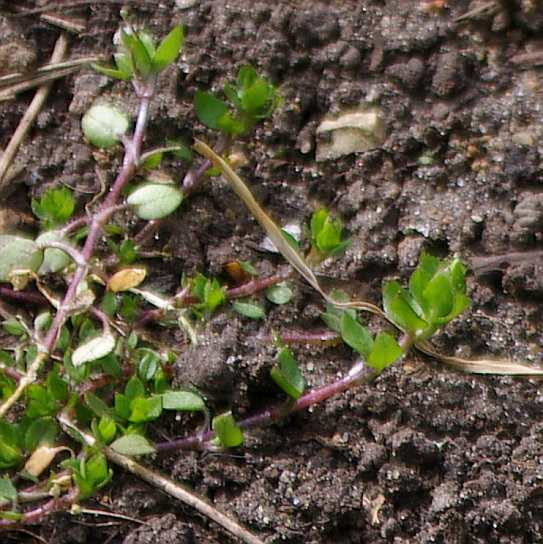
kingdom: Plantae
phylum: Tracheophyta
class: Magnoliopsida
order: Caryophyllales
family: Caryophyllaceae
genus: Stellaria
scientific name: Stellaria media
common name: Common chickweed
